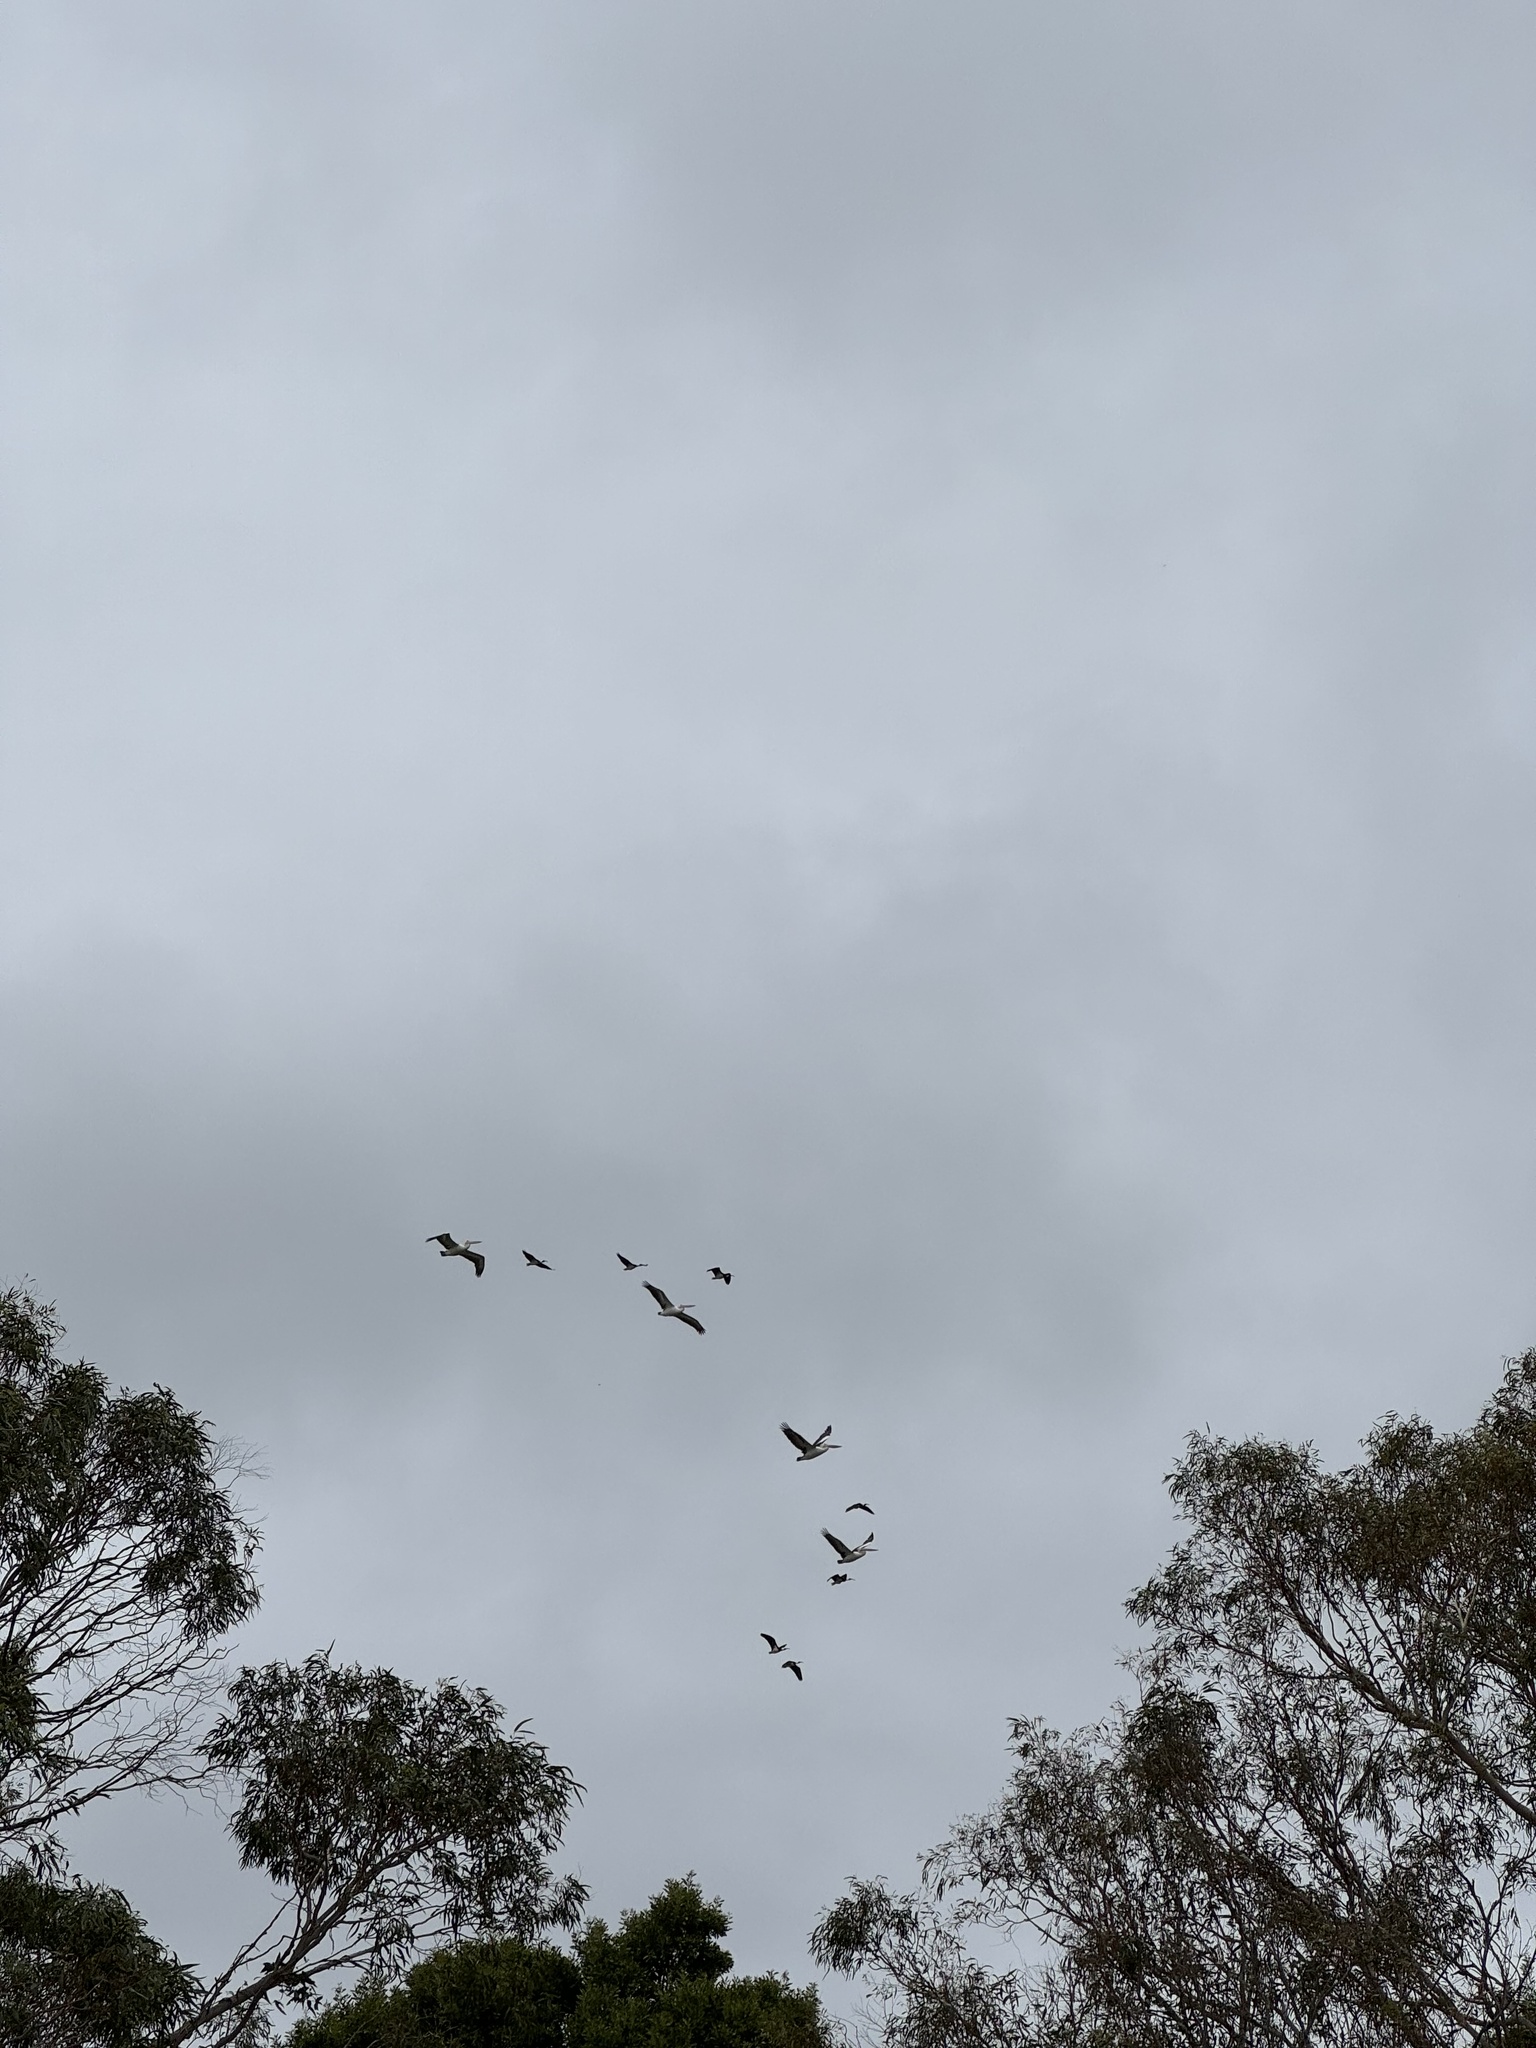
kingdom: Animalia
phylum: Chordata
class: Aves
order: Pelecaniformes
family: Pelecanidae
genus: Pelecanus
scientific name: Pelecanus conspicillatus
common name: Australian pelican
